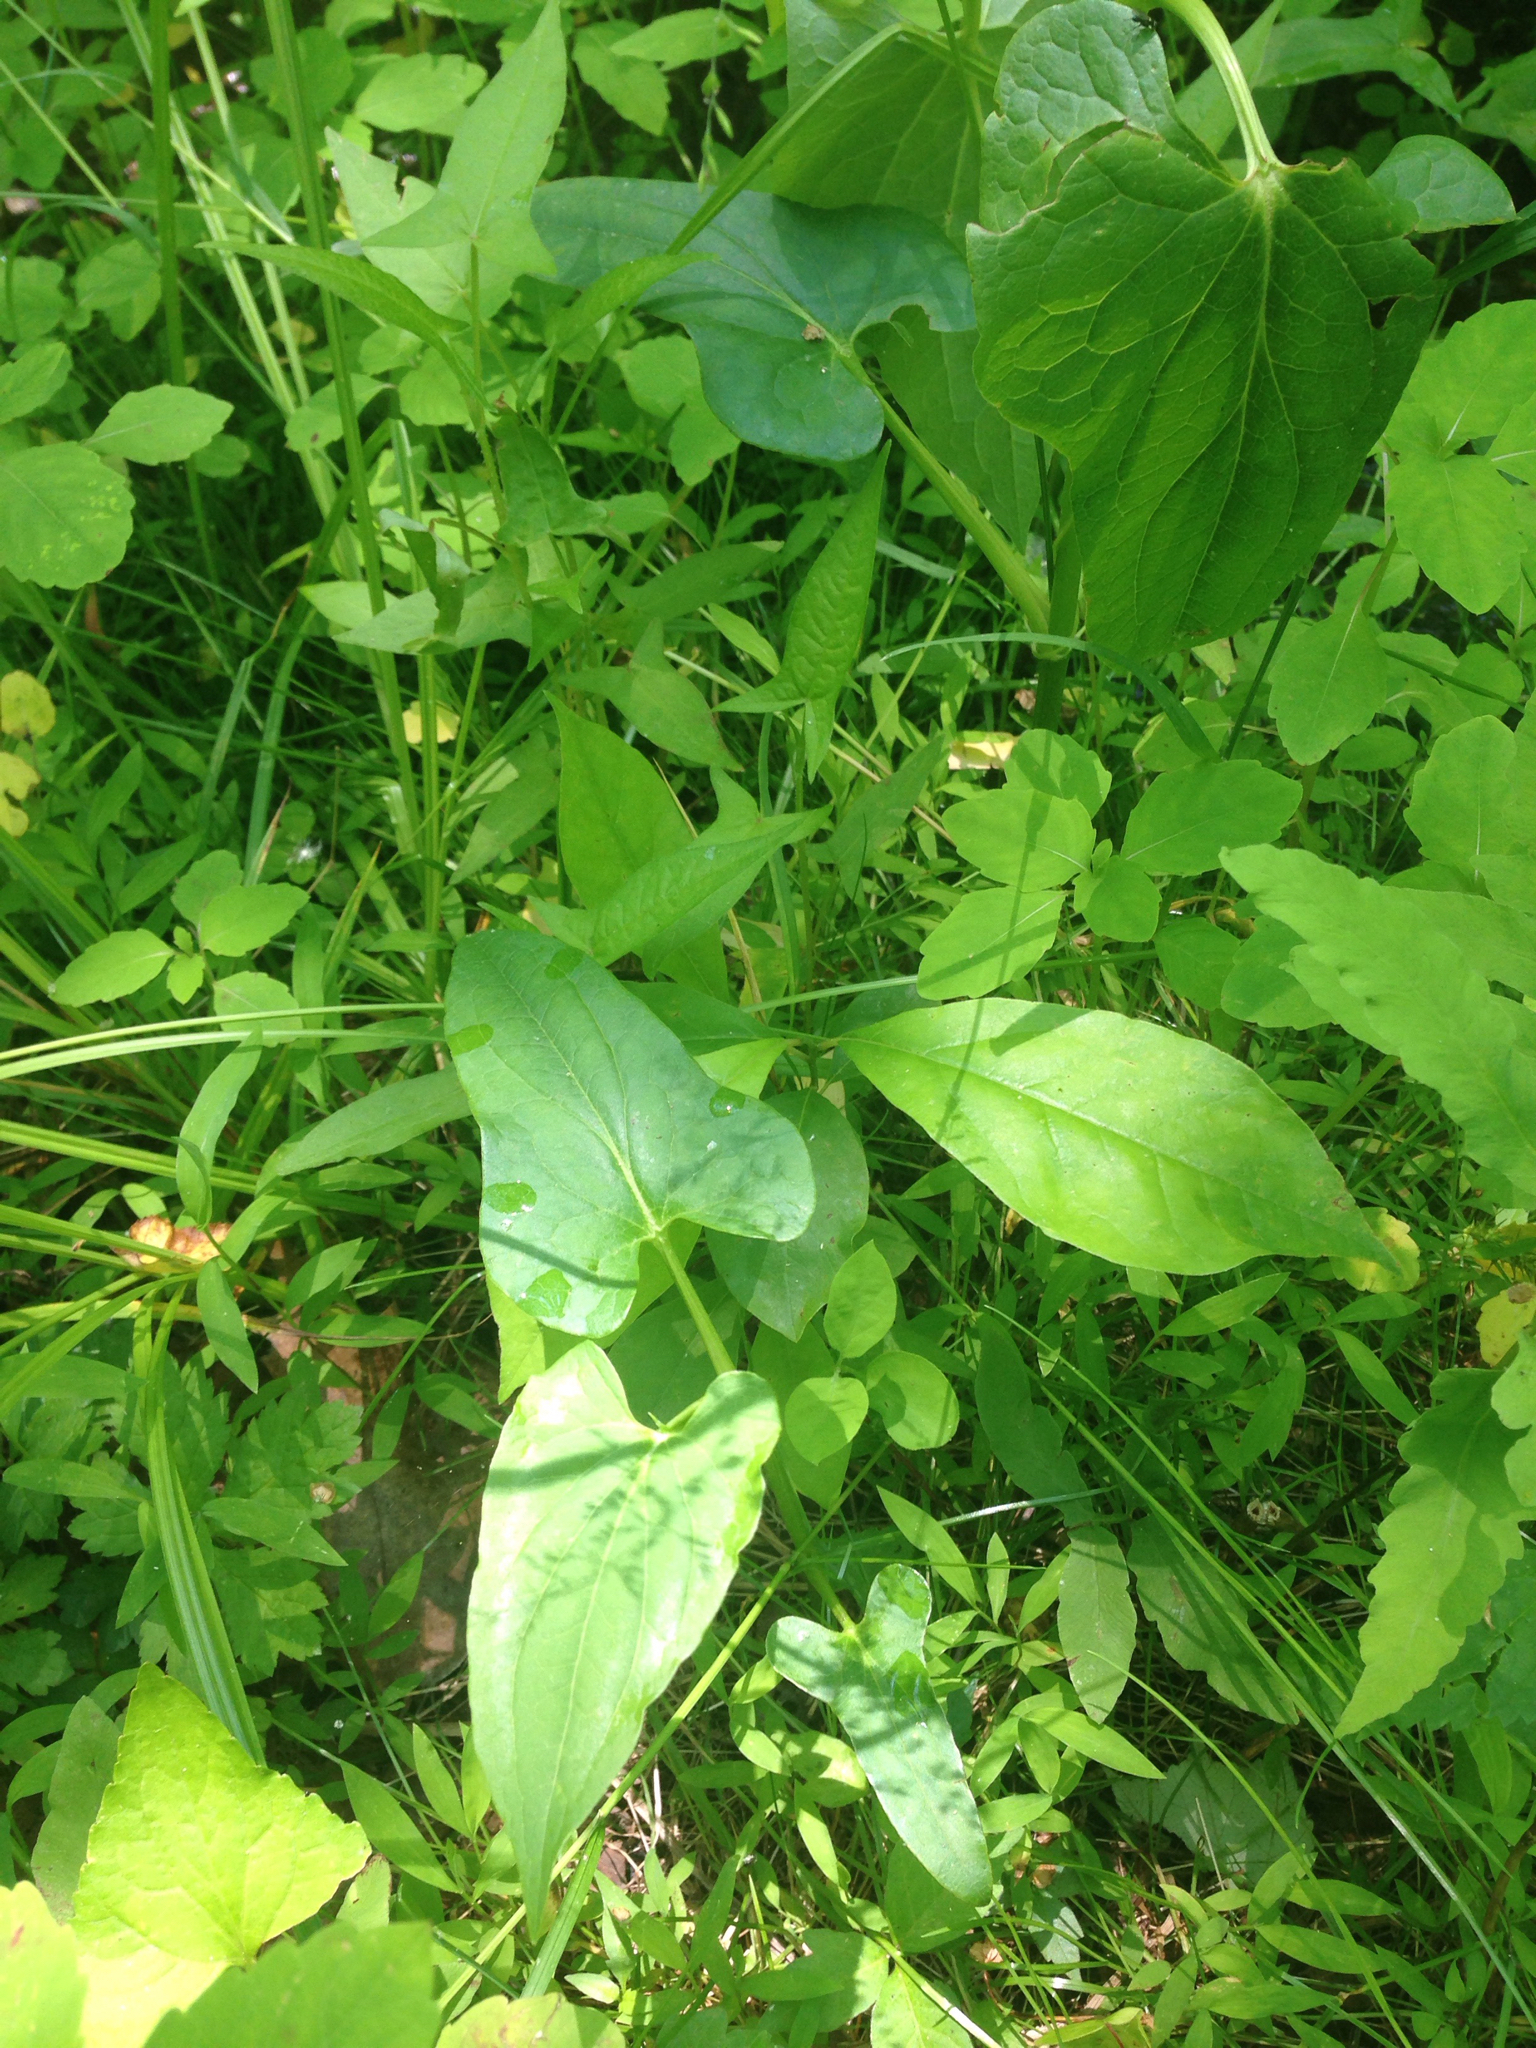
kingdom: Plantae
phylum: Tracheophyta
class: Magnoliopsida
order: Caryophyllales
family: Polygonaceae
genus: Persicaria
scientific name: Persicaria arifolia
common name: Halberd-leaved tear-thumb
